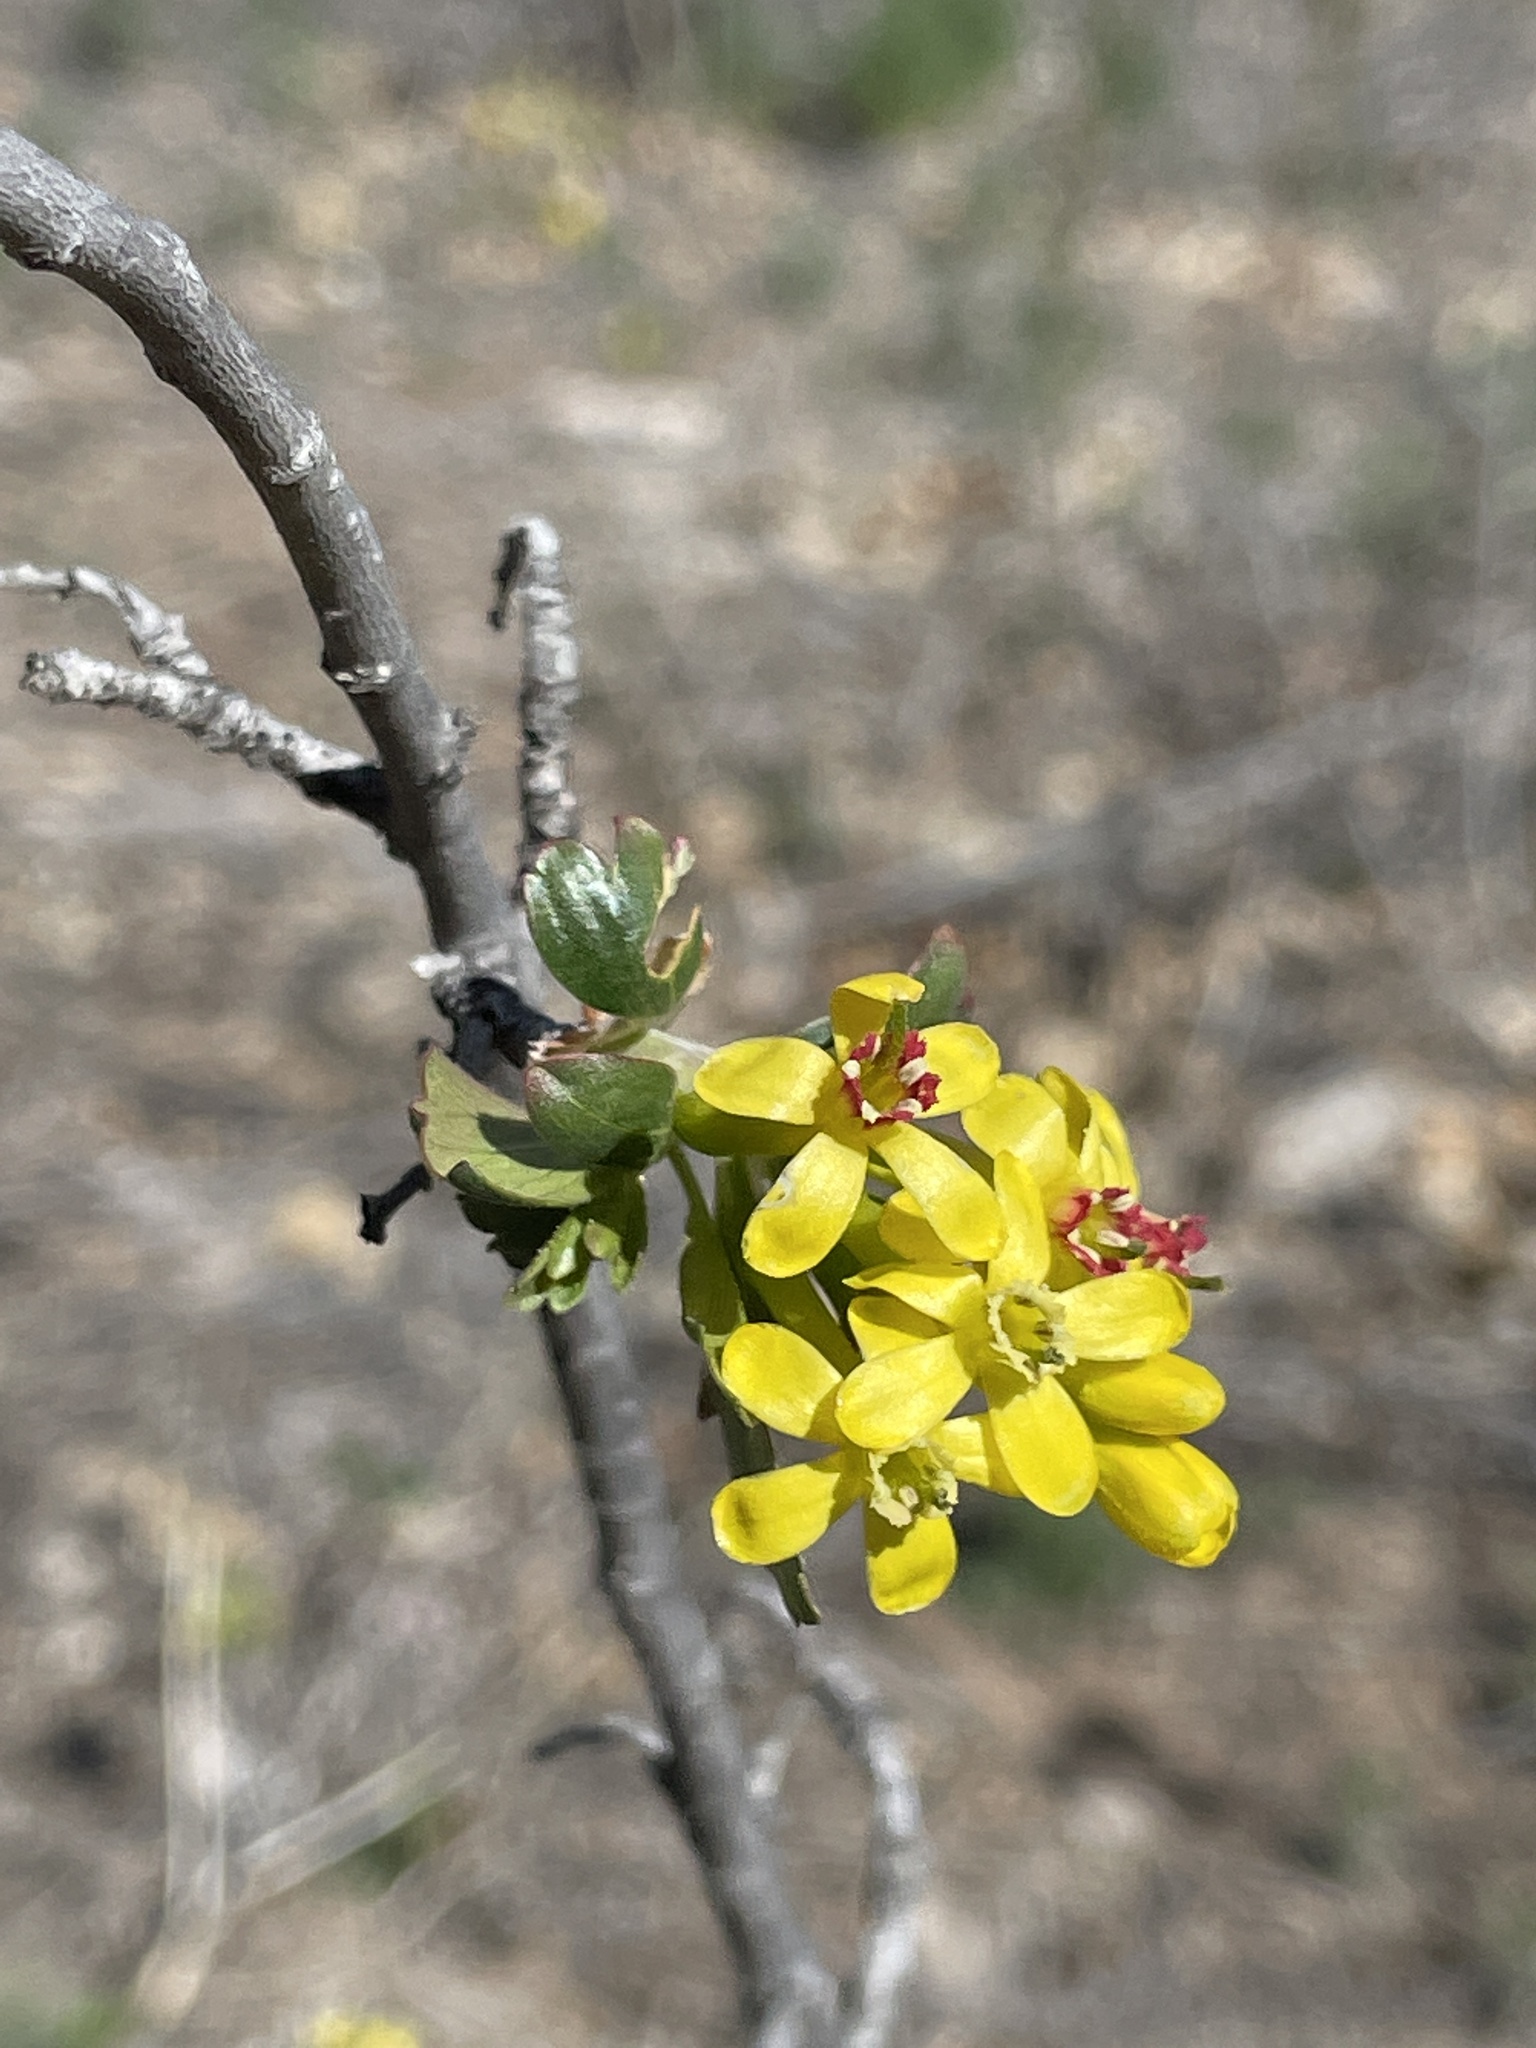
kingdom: Plantae
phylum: Tracheophyta
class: Magnoliopsida
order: Saxifragales
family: Grossulariaceae
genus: Ribes
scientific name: Ribes aureum
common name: Golden currant
